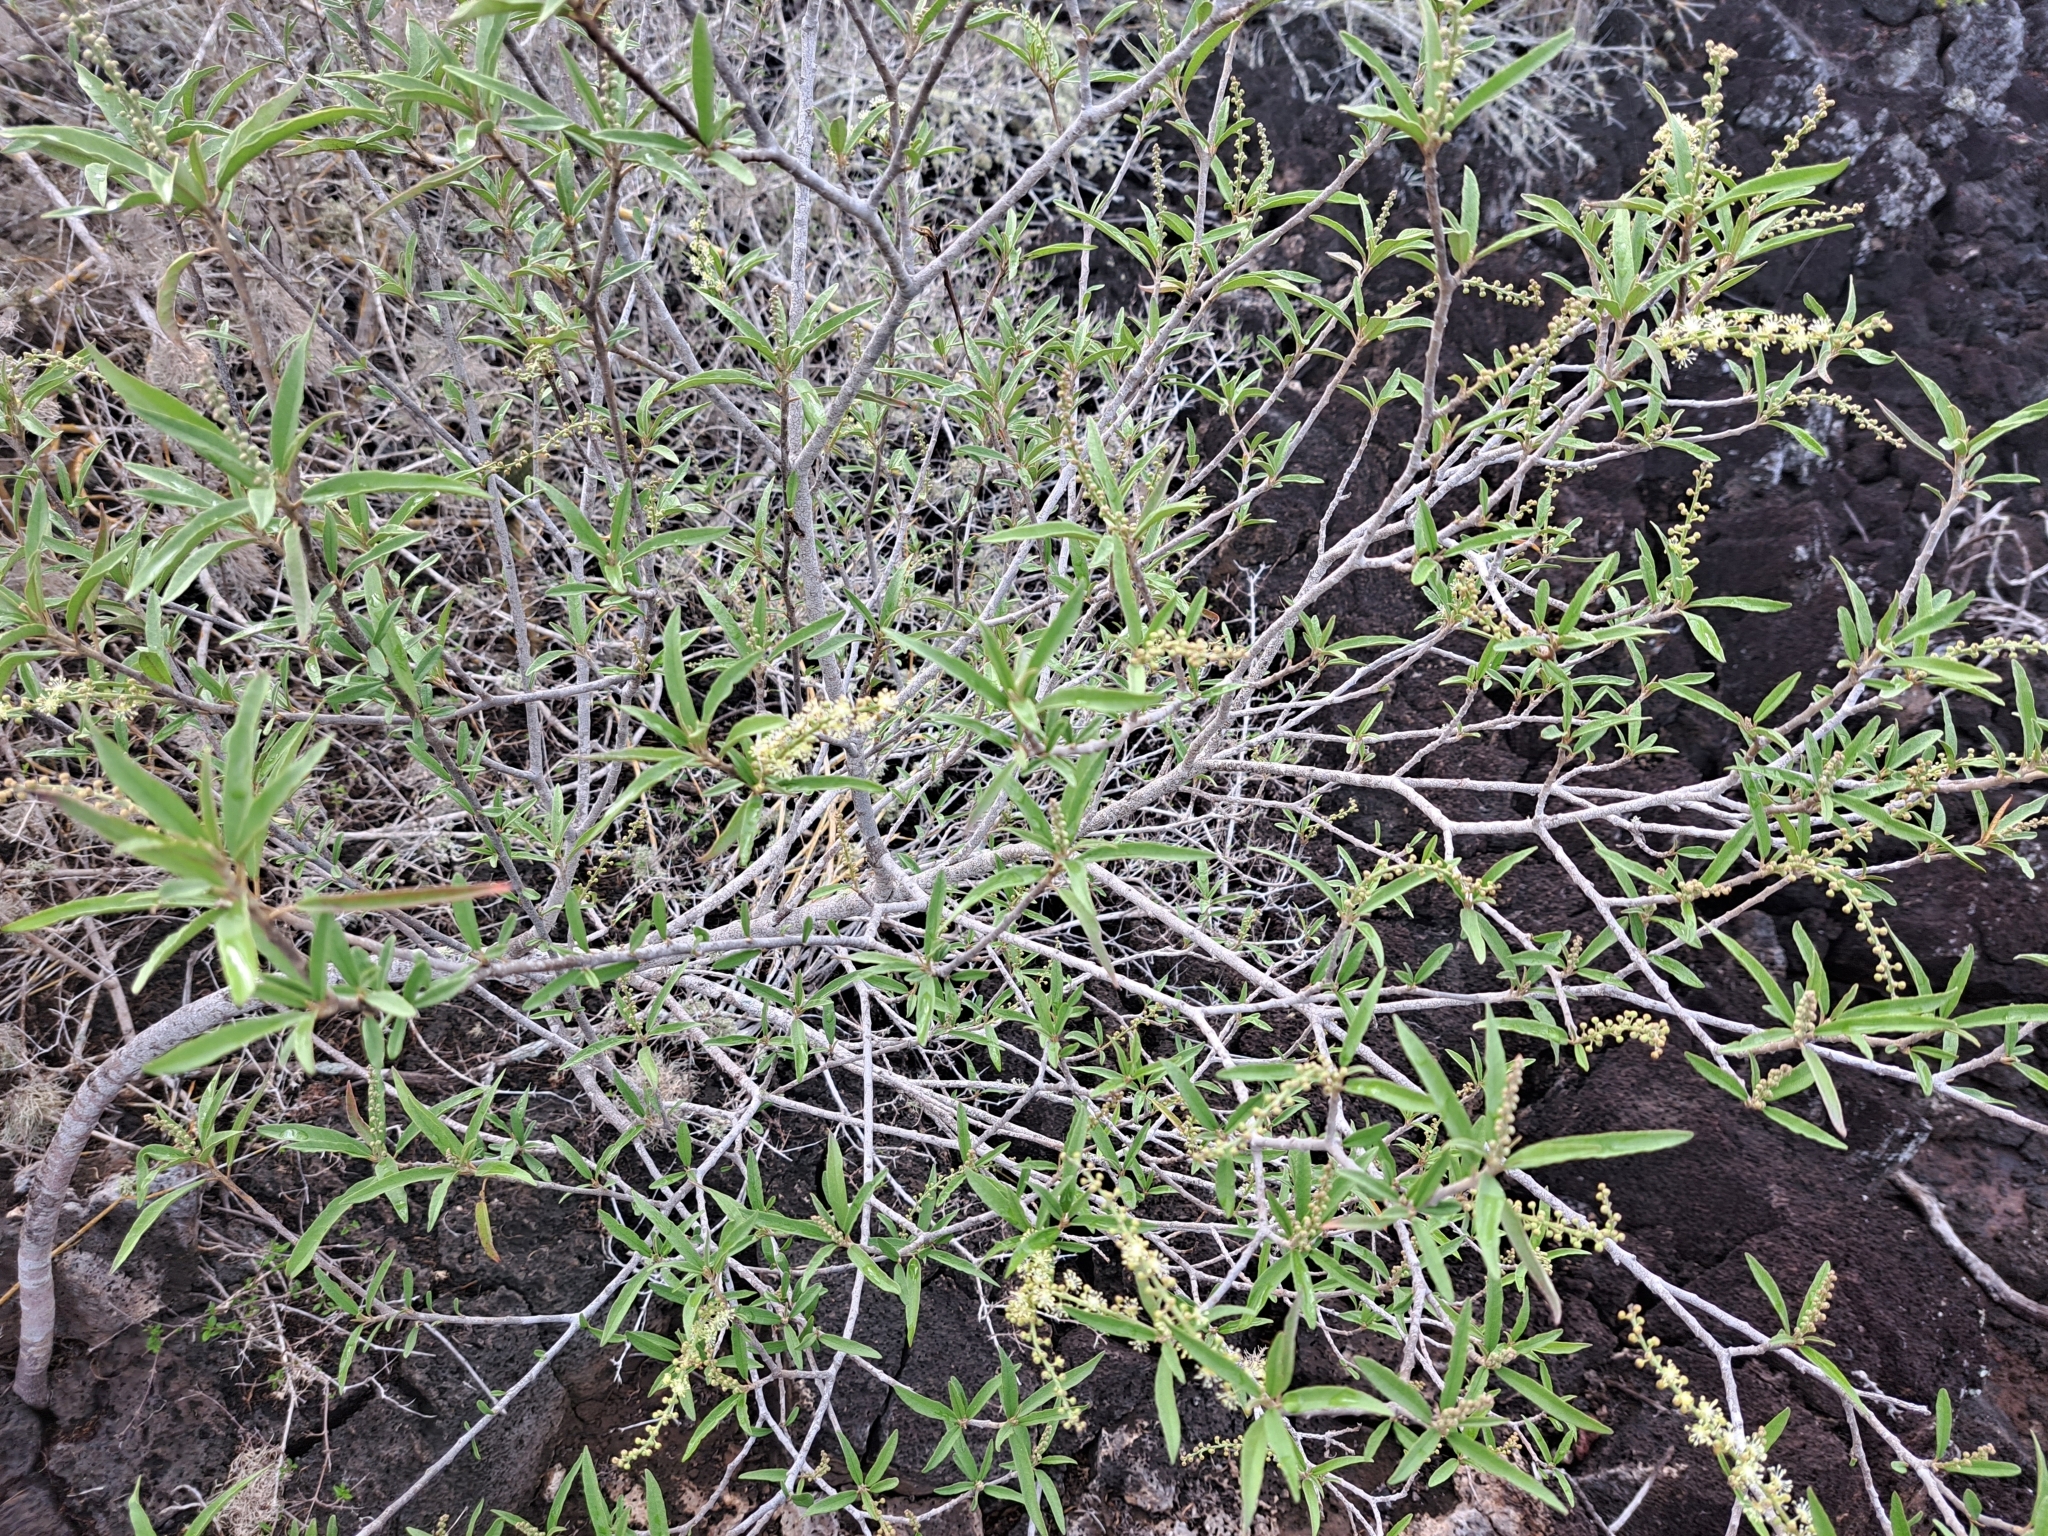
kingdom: Plantae
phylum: Tracheophyta
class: Magnoliopsida
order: Malpighiales
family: Euphorbiaceae
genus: Croton
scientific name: Croton scouleri
